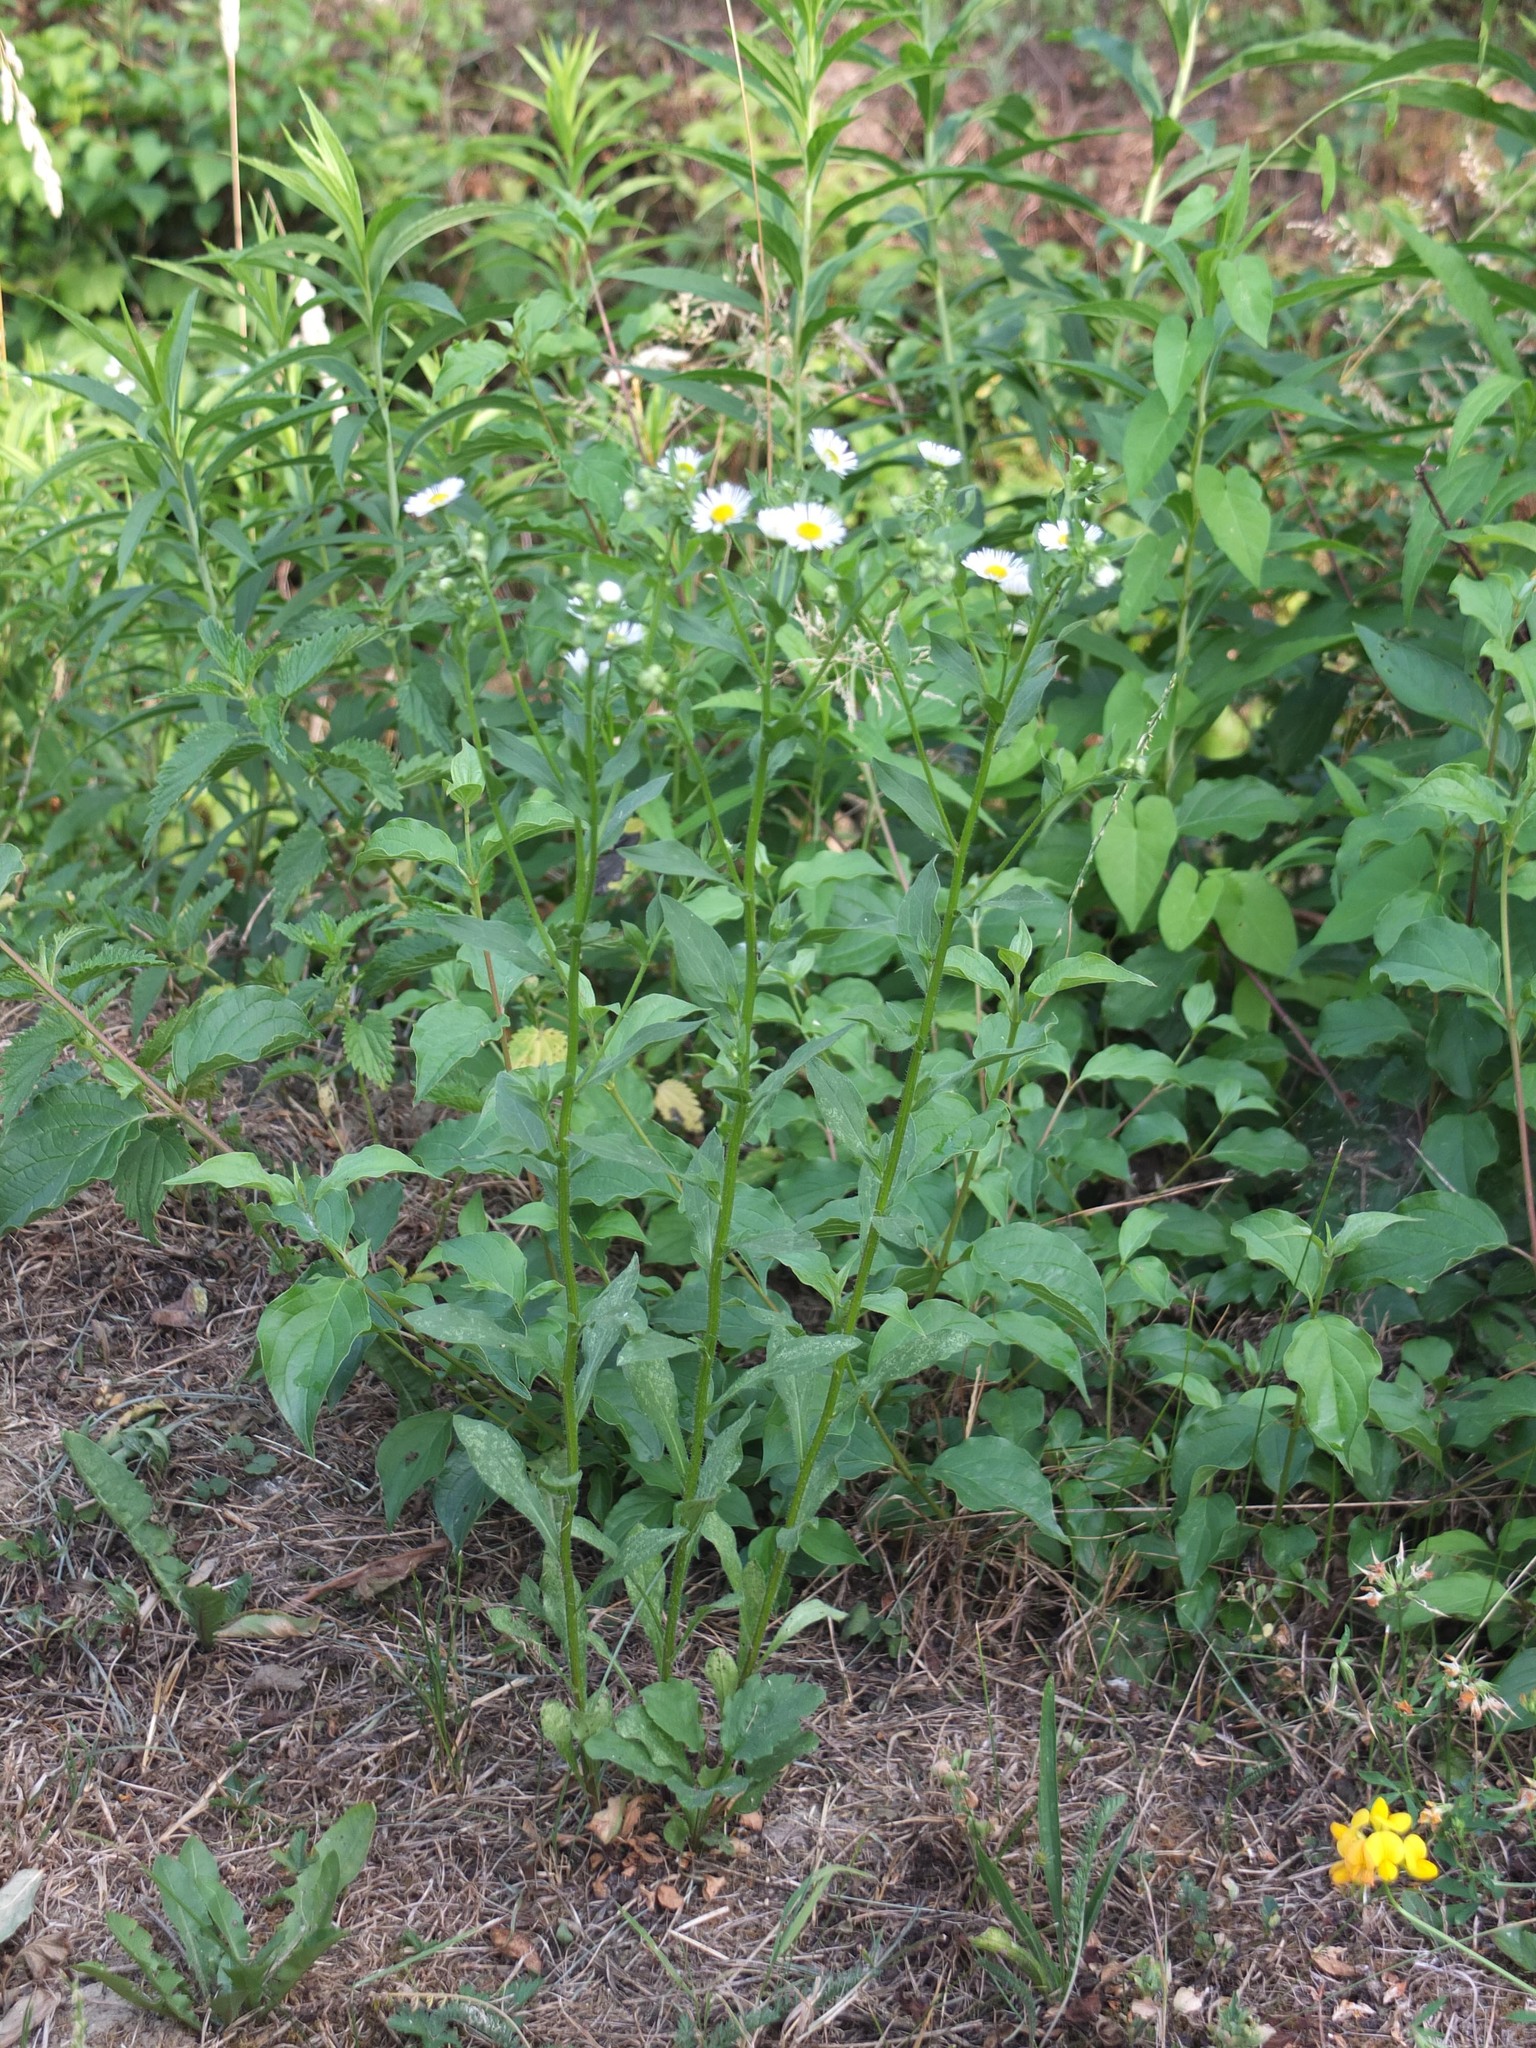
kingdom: Plantae
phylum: Tracheophyta
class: Magnoliopsida
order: Asterales
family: Asteraceae
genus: Erigeron
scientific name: Erigeron annuus
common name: Tall fleabane
